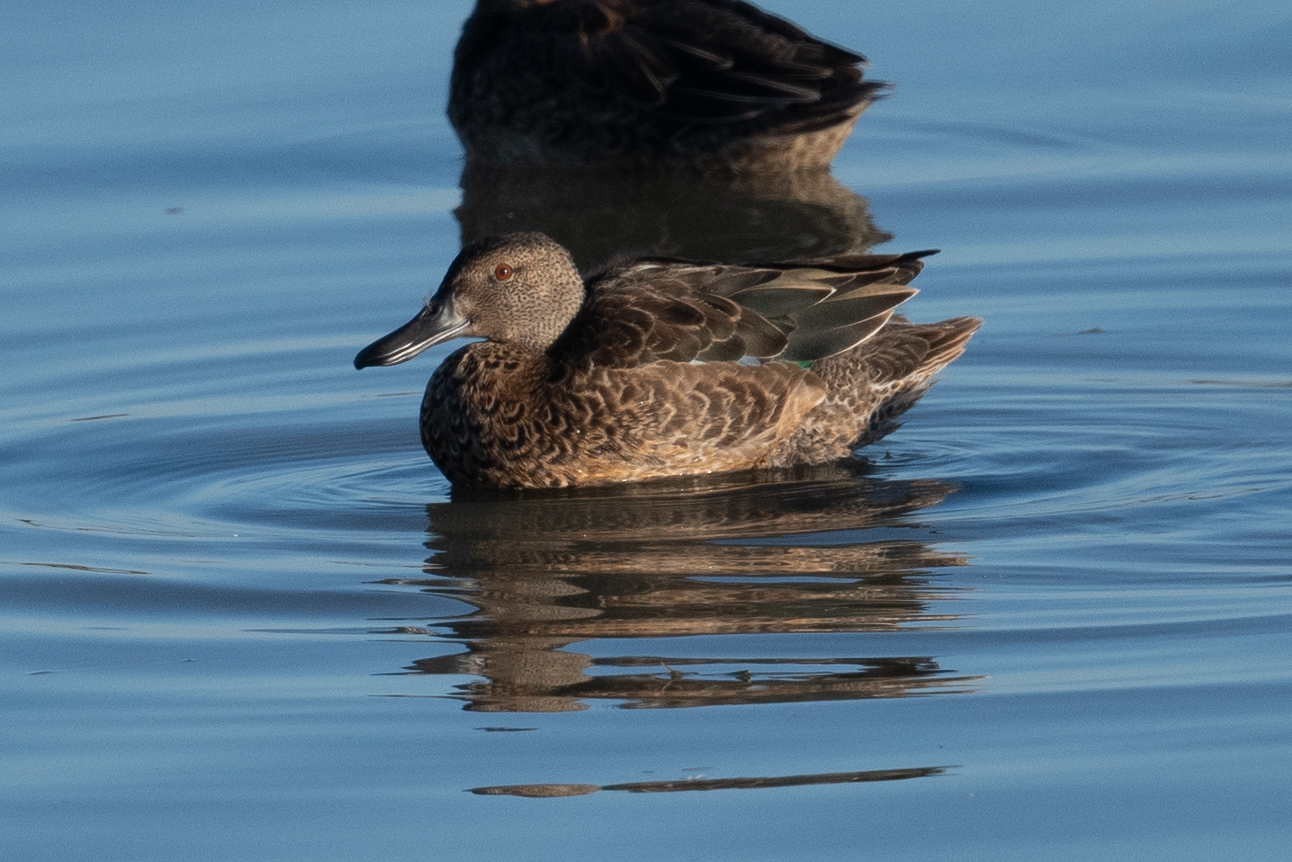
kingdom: Animalia
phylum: Chordata
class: Aves
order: Anseriformes
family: Anatidae
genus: Spatula
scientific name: Spatula cyanoptera
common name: Cinnamon teal
